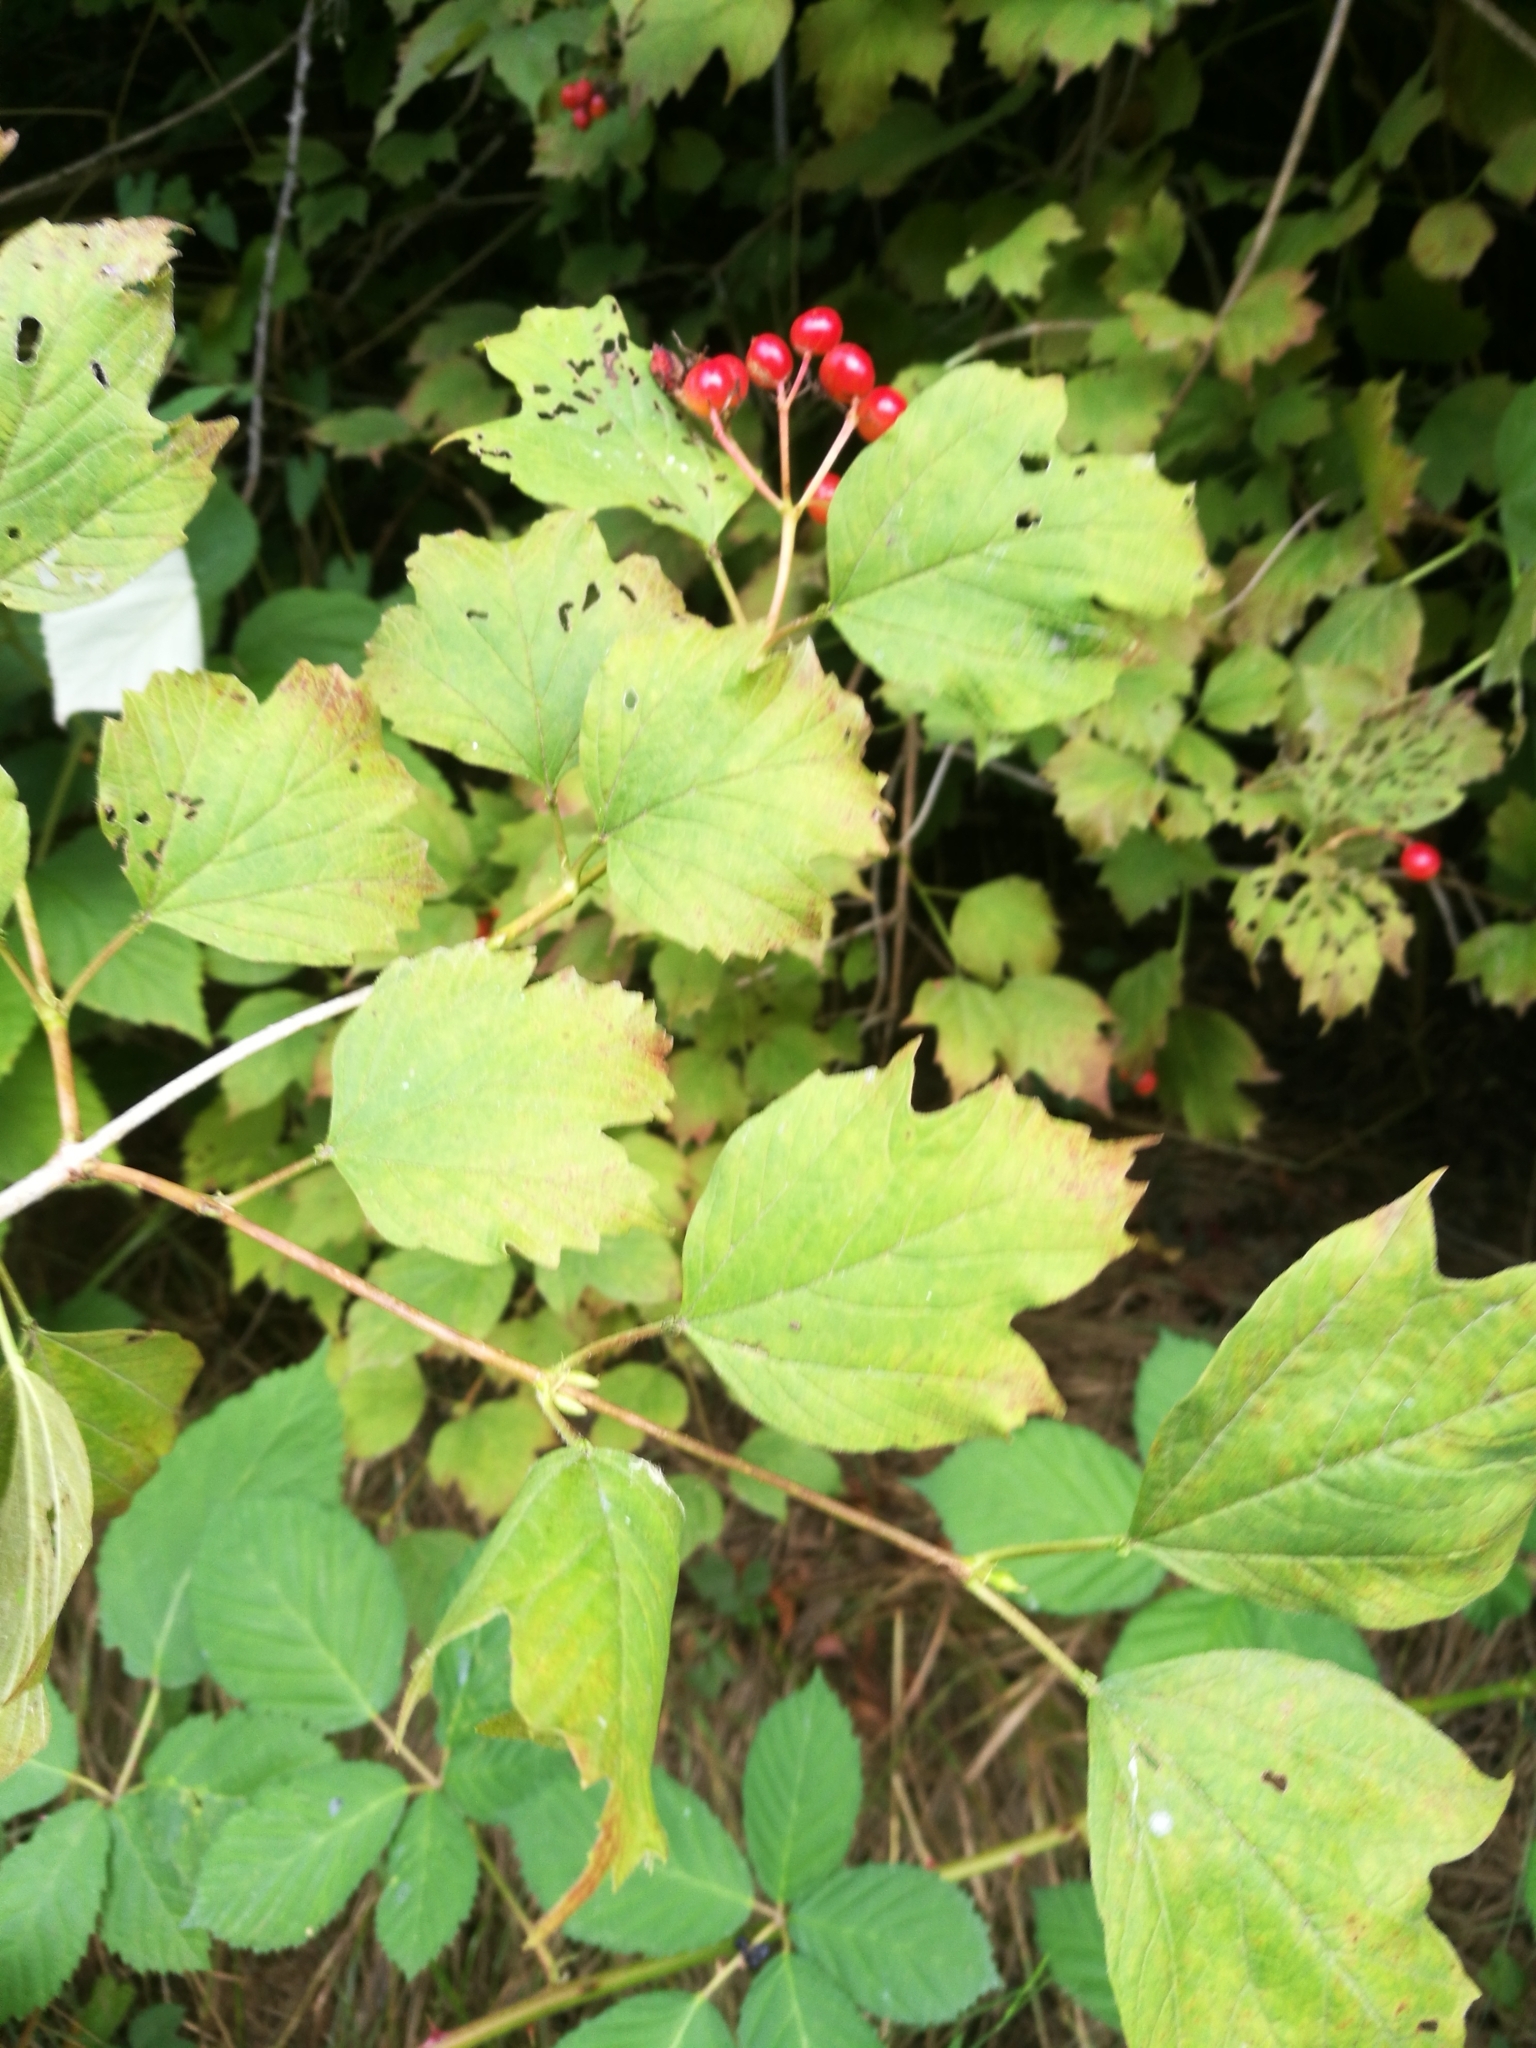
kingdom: Plantae
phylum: Tracheophyta
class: Magnoliopsida
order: Dipsacales
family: Viburnaceae
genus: Viburnum
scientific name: Viburnum opulus
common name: Guelder-rose
